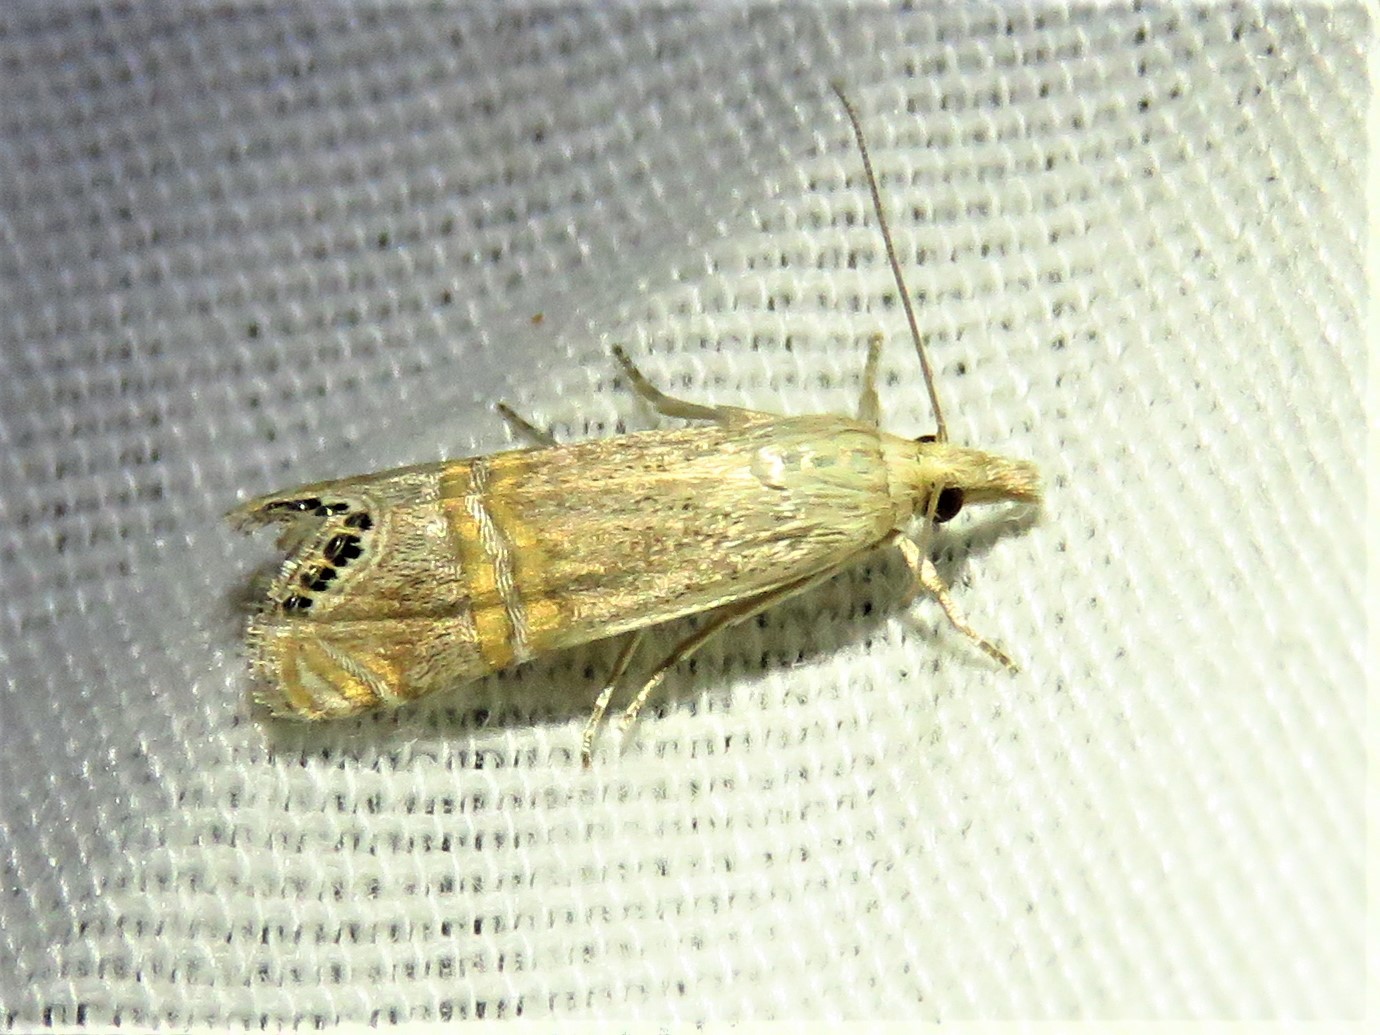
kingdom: Animalia
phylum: Arthropoda
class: Insecta
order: Lepidoptera
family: Crambidae
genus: Euchromius
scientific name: Euchromius ocellea
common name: Necklace veneer moth
